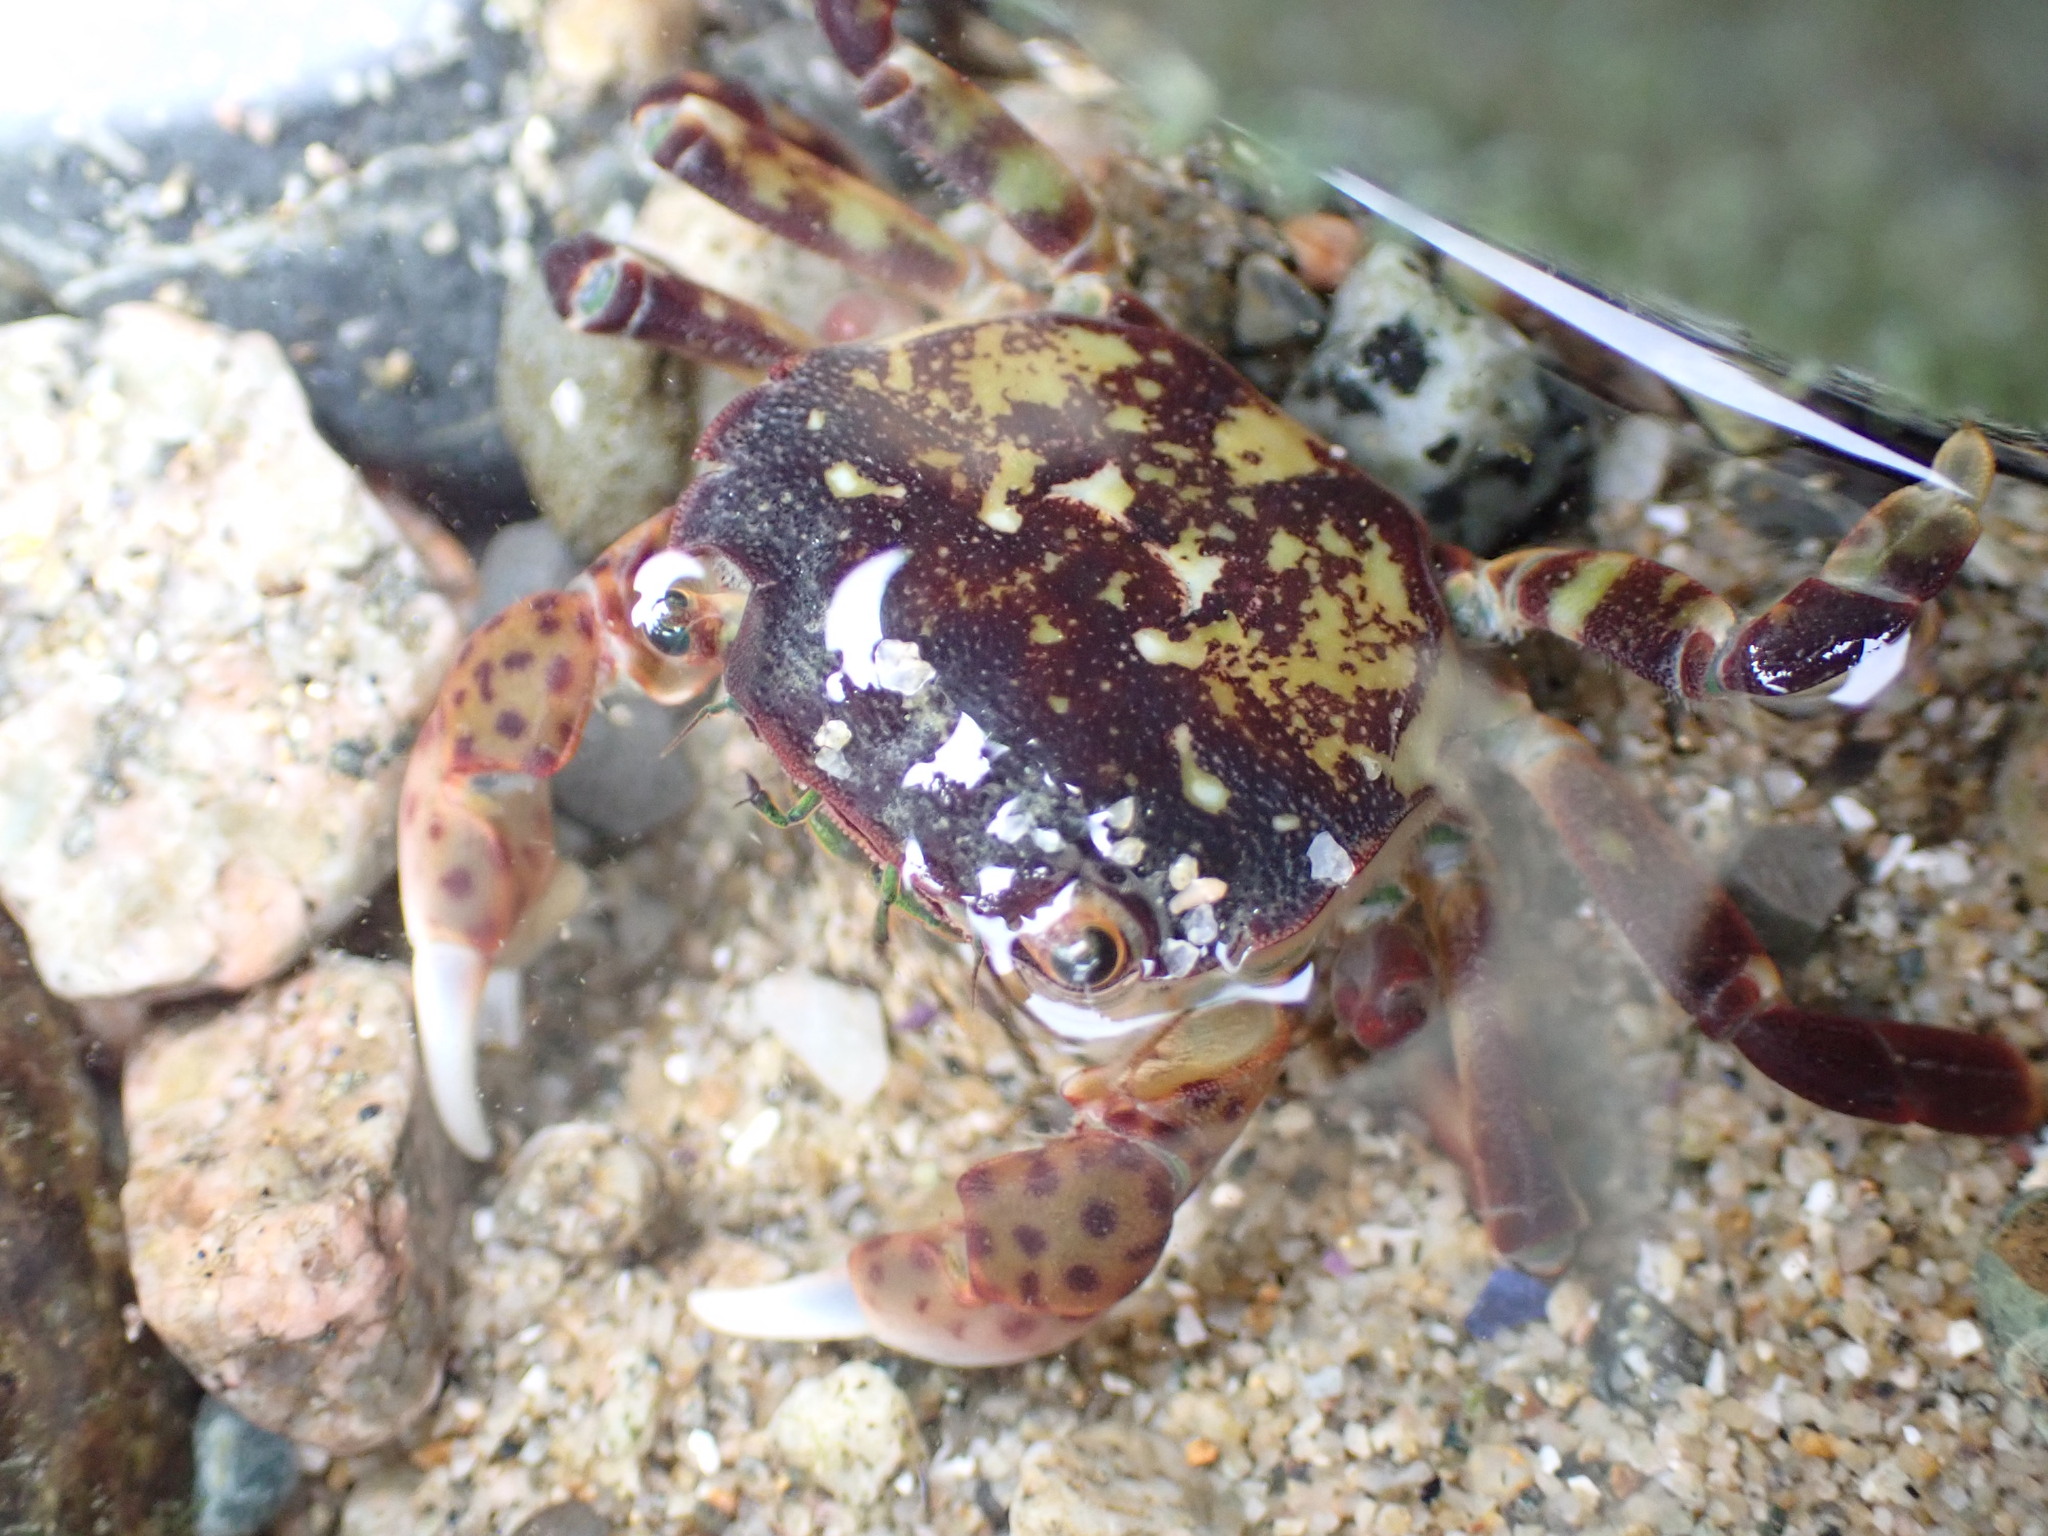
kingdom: Animalia
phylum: Arthropoda
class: Malacostraca
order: Decapoda
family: Varunidae
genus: Hemigrapsus
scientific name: Hemigrapsus nudus
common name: Purple shore crab
